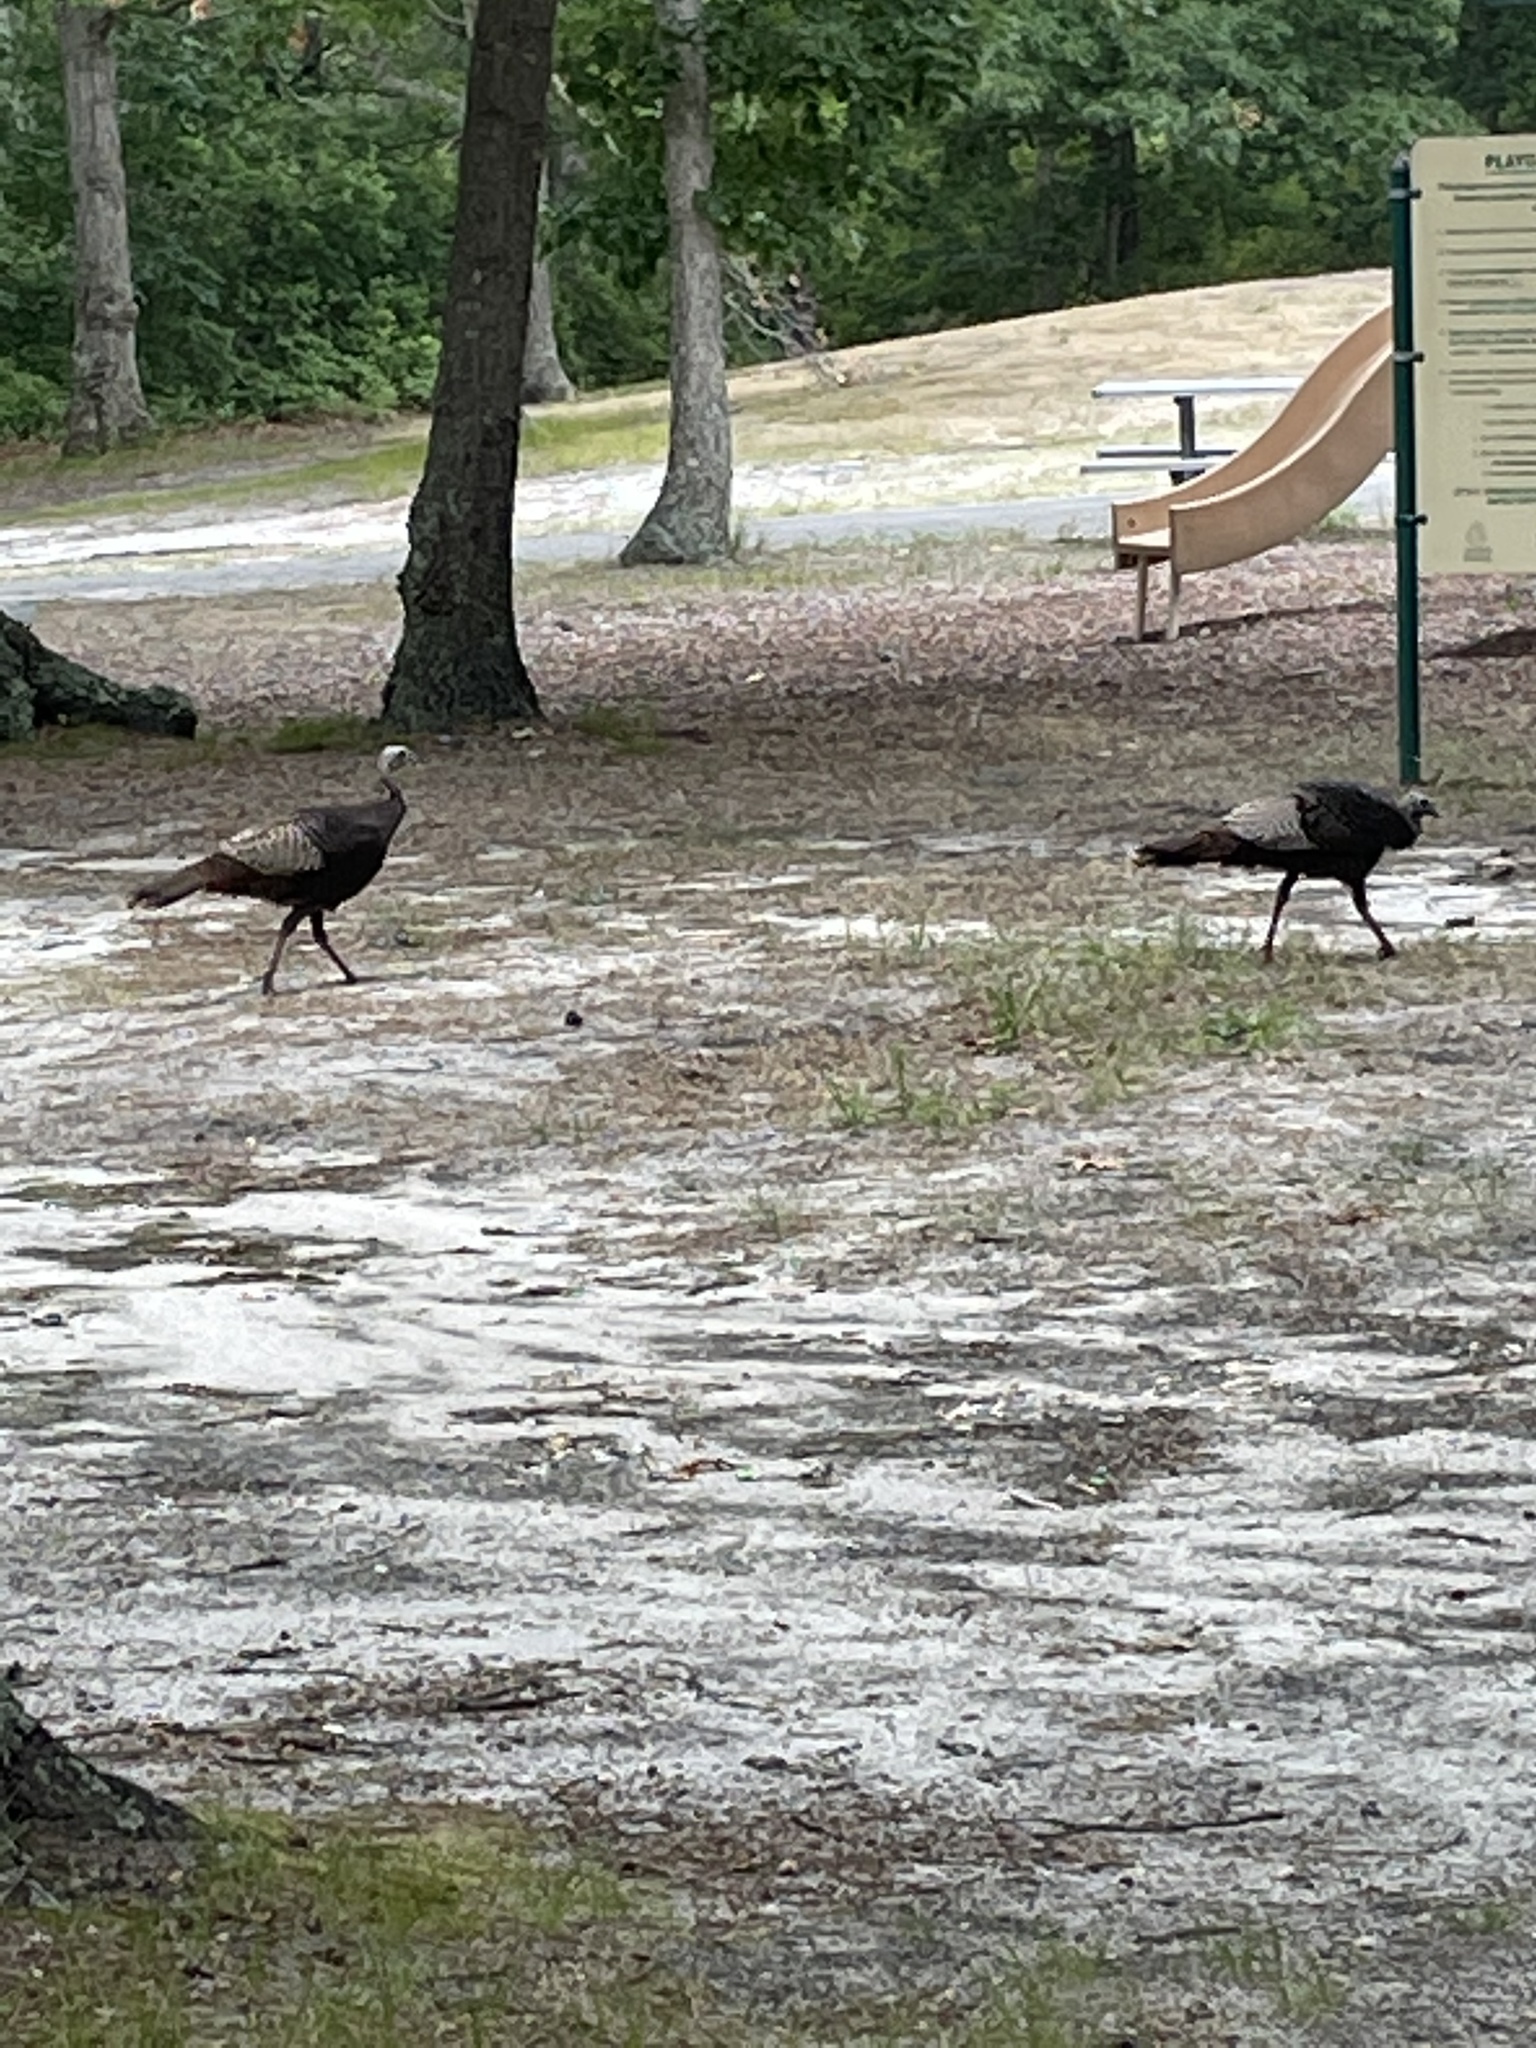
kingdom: Animalia
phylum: Chordata
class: Aves
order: Galliformes
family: Phasianidae
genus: Meleagris
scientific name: Meleagris gallopavo
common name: Wild turkey
